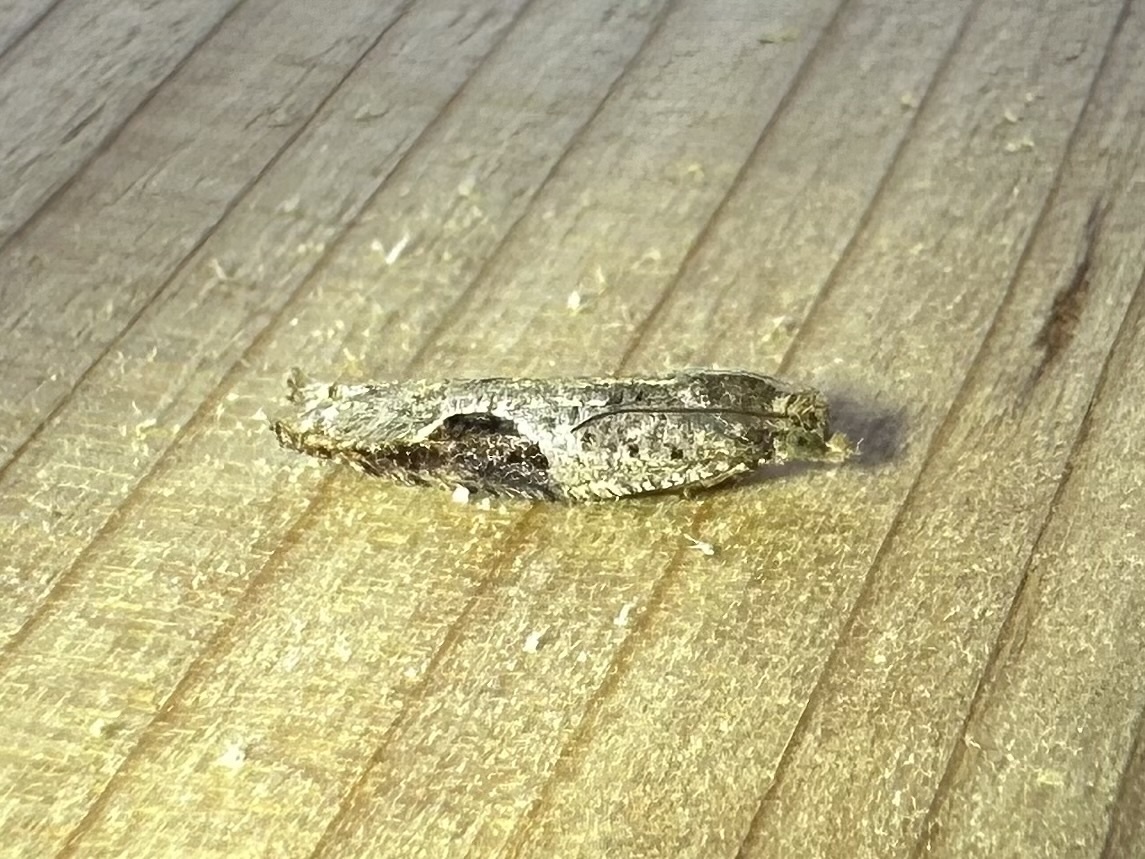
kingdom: Animalia
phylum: Arthropoda
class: Insecta
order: Lepidoptera
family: Tortricidae
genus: Pseudexentera
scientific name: Pseudexentera virginiana
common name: Virginia pseudexentera moth
